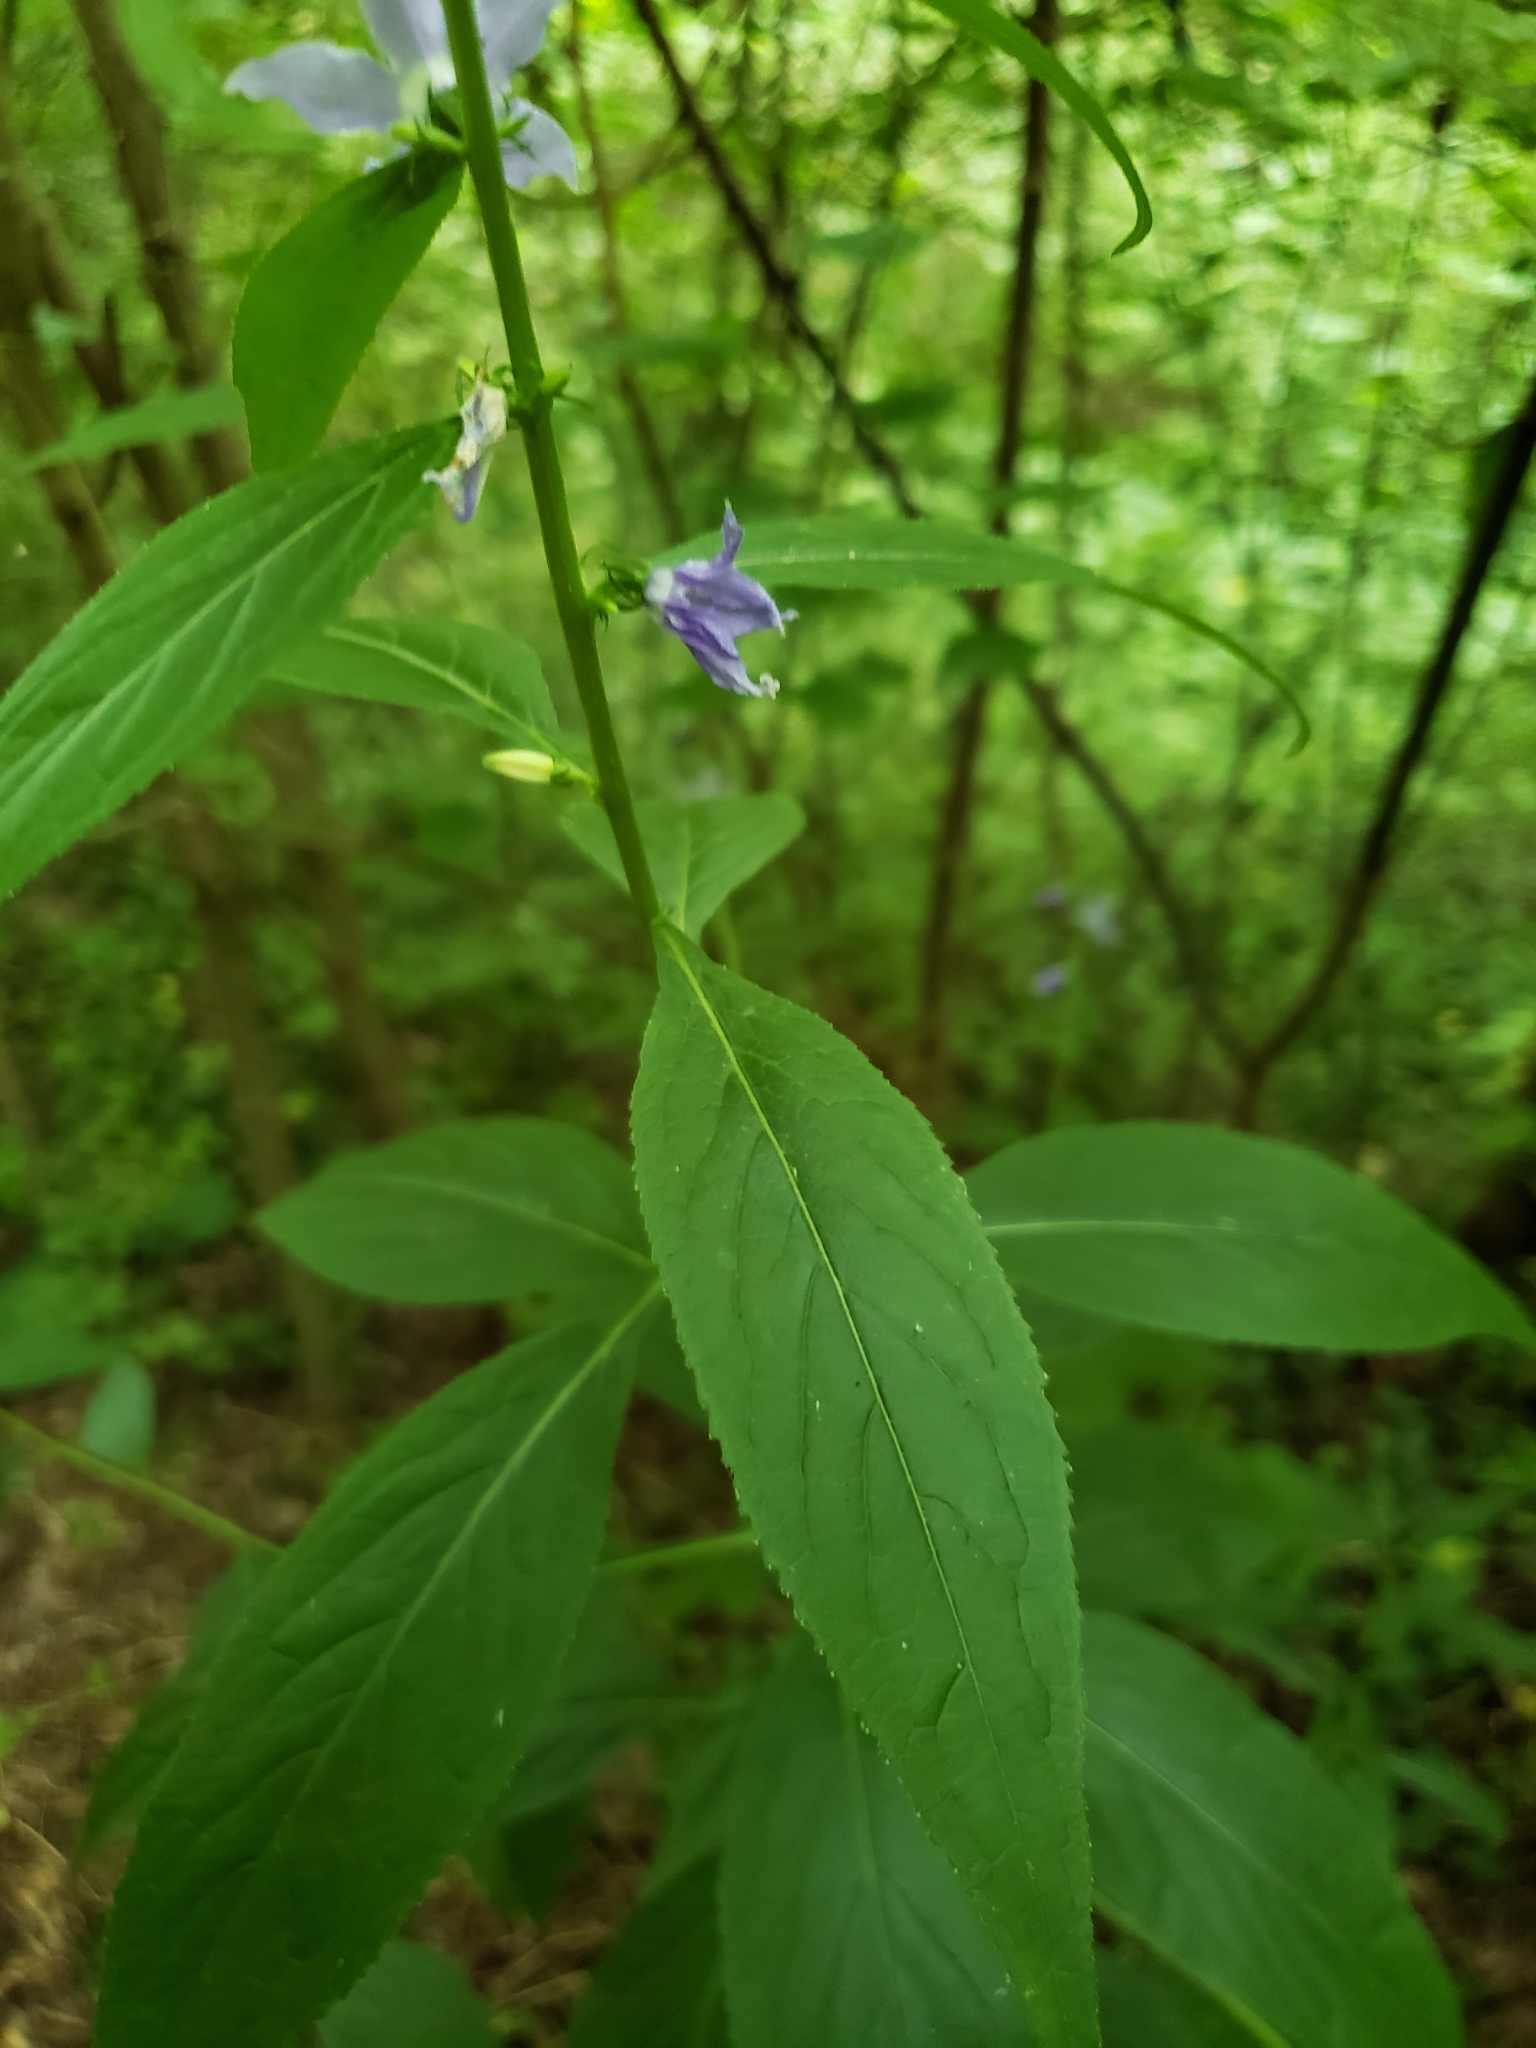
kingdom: Plantae
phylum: Tracheophyta
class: Magnoliopsida
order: Asterales
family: Campanulaceae
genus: Campanulastrum
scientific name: Campanulastrum americanum
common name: American bellflower
